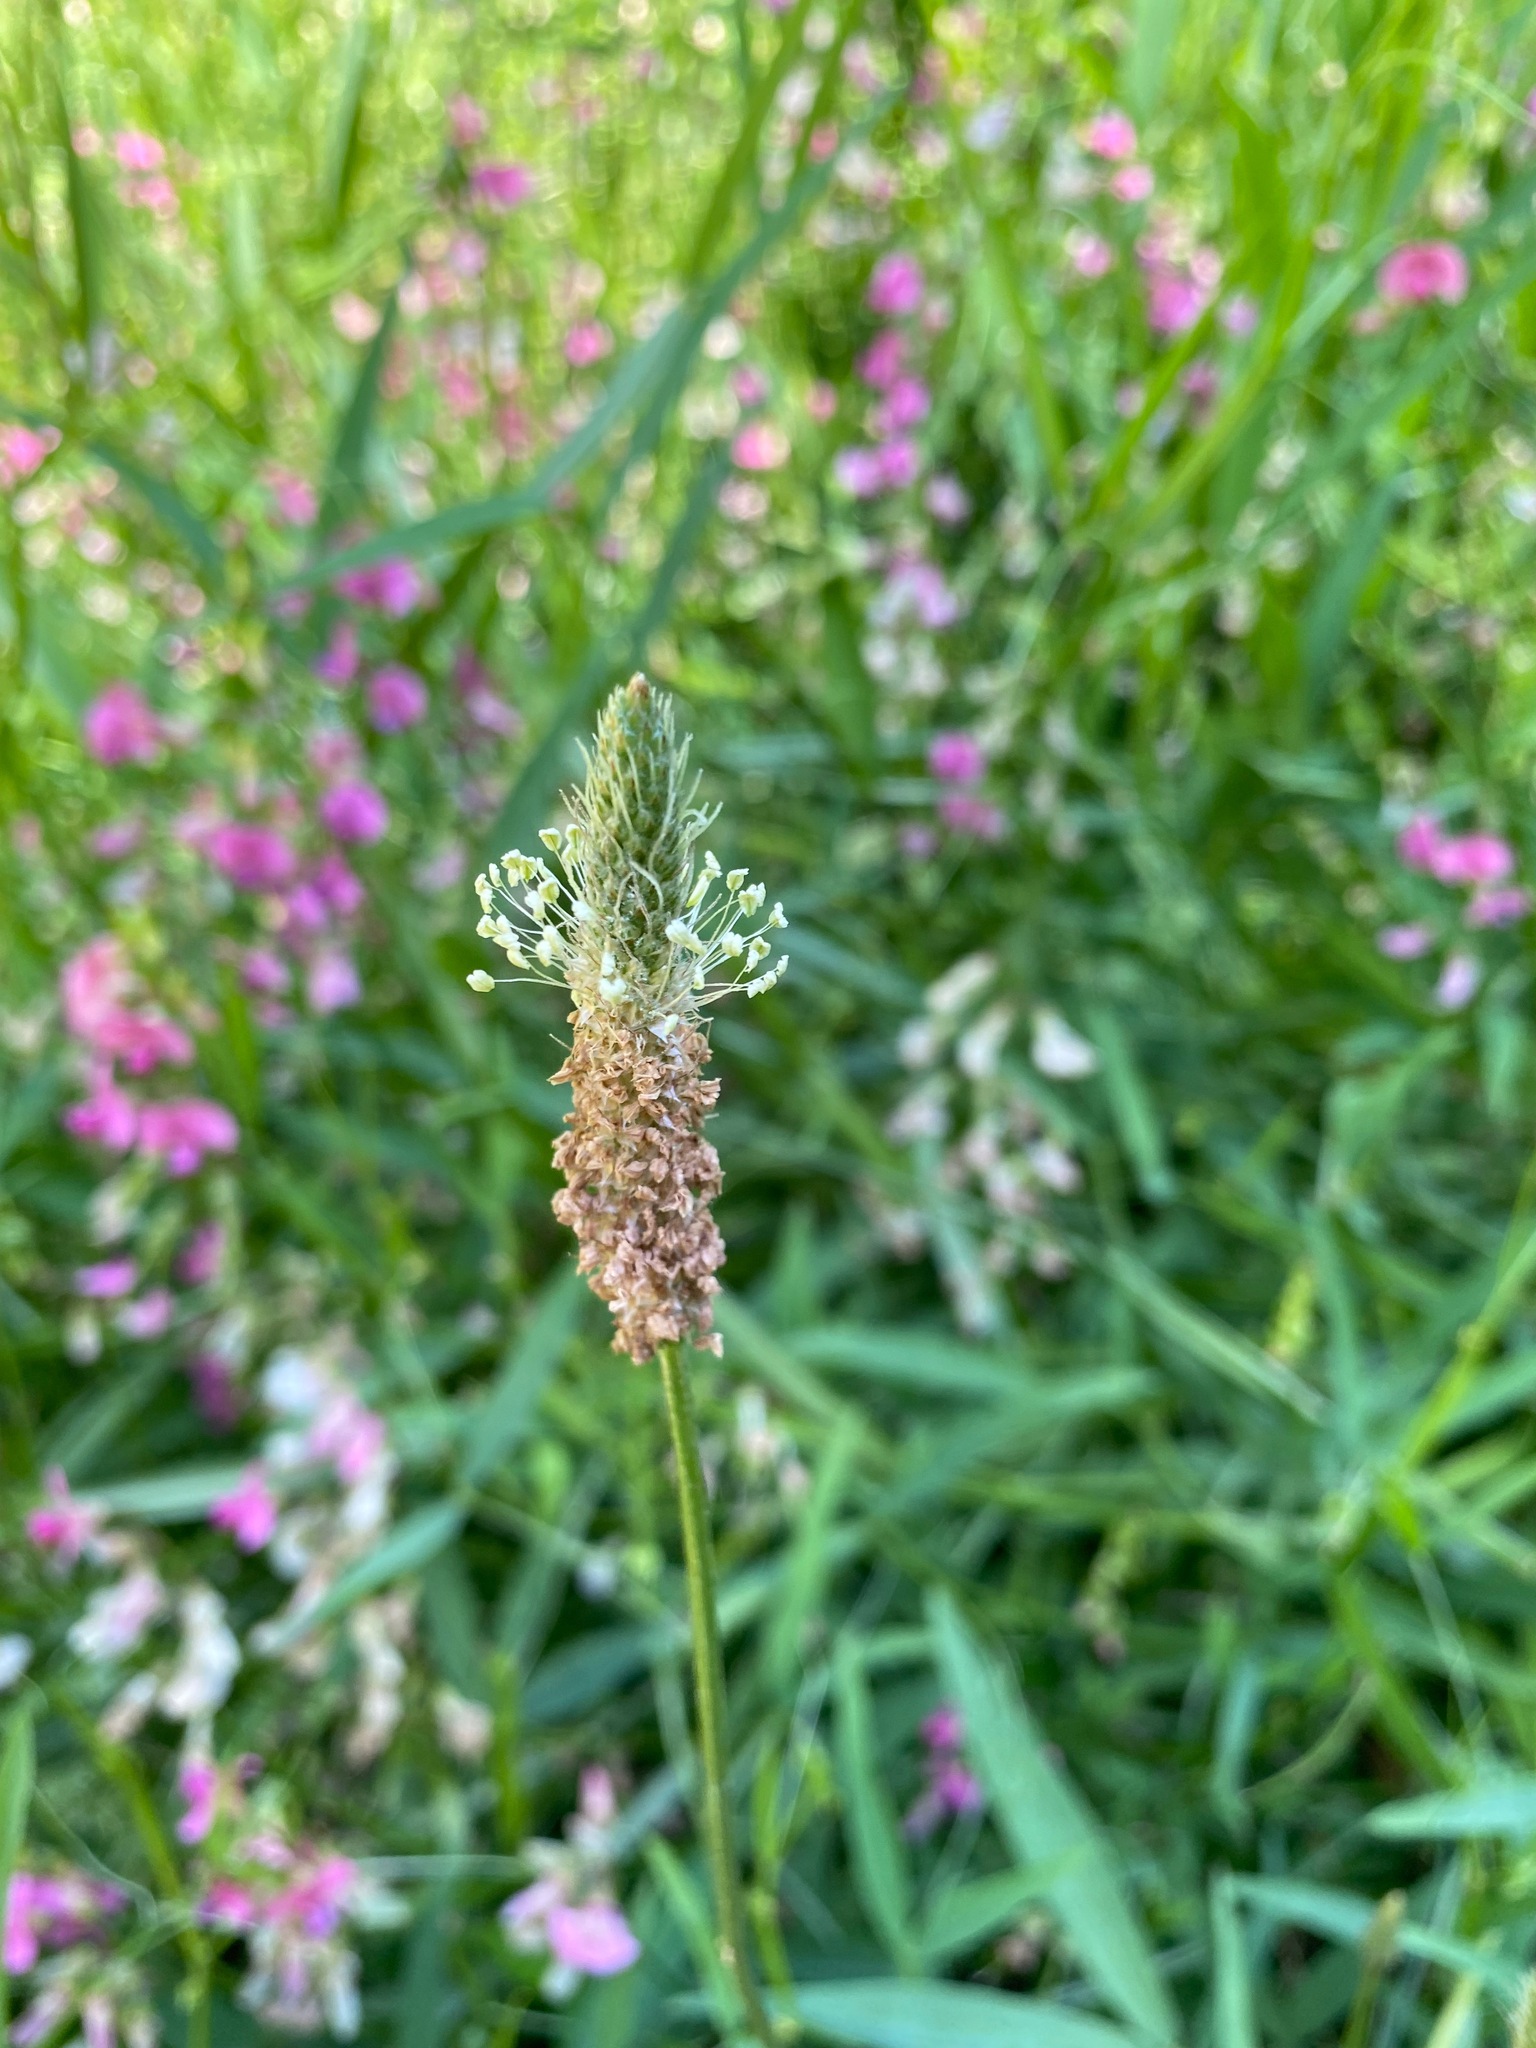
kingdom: Plantae
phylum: Tracheophyta
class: Magnoliopsida
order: Lamiales
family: Plantaginaceae
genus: Plantago
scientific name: Plantago lanceolata
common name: Ribwort plantain
